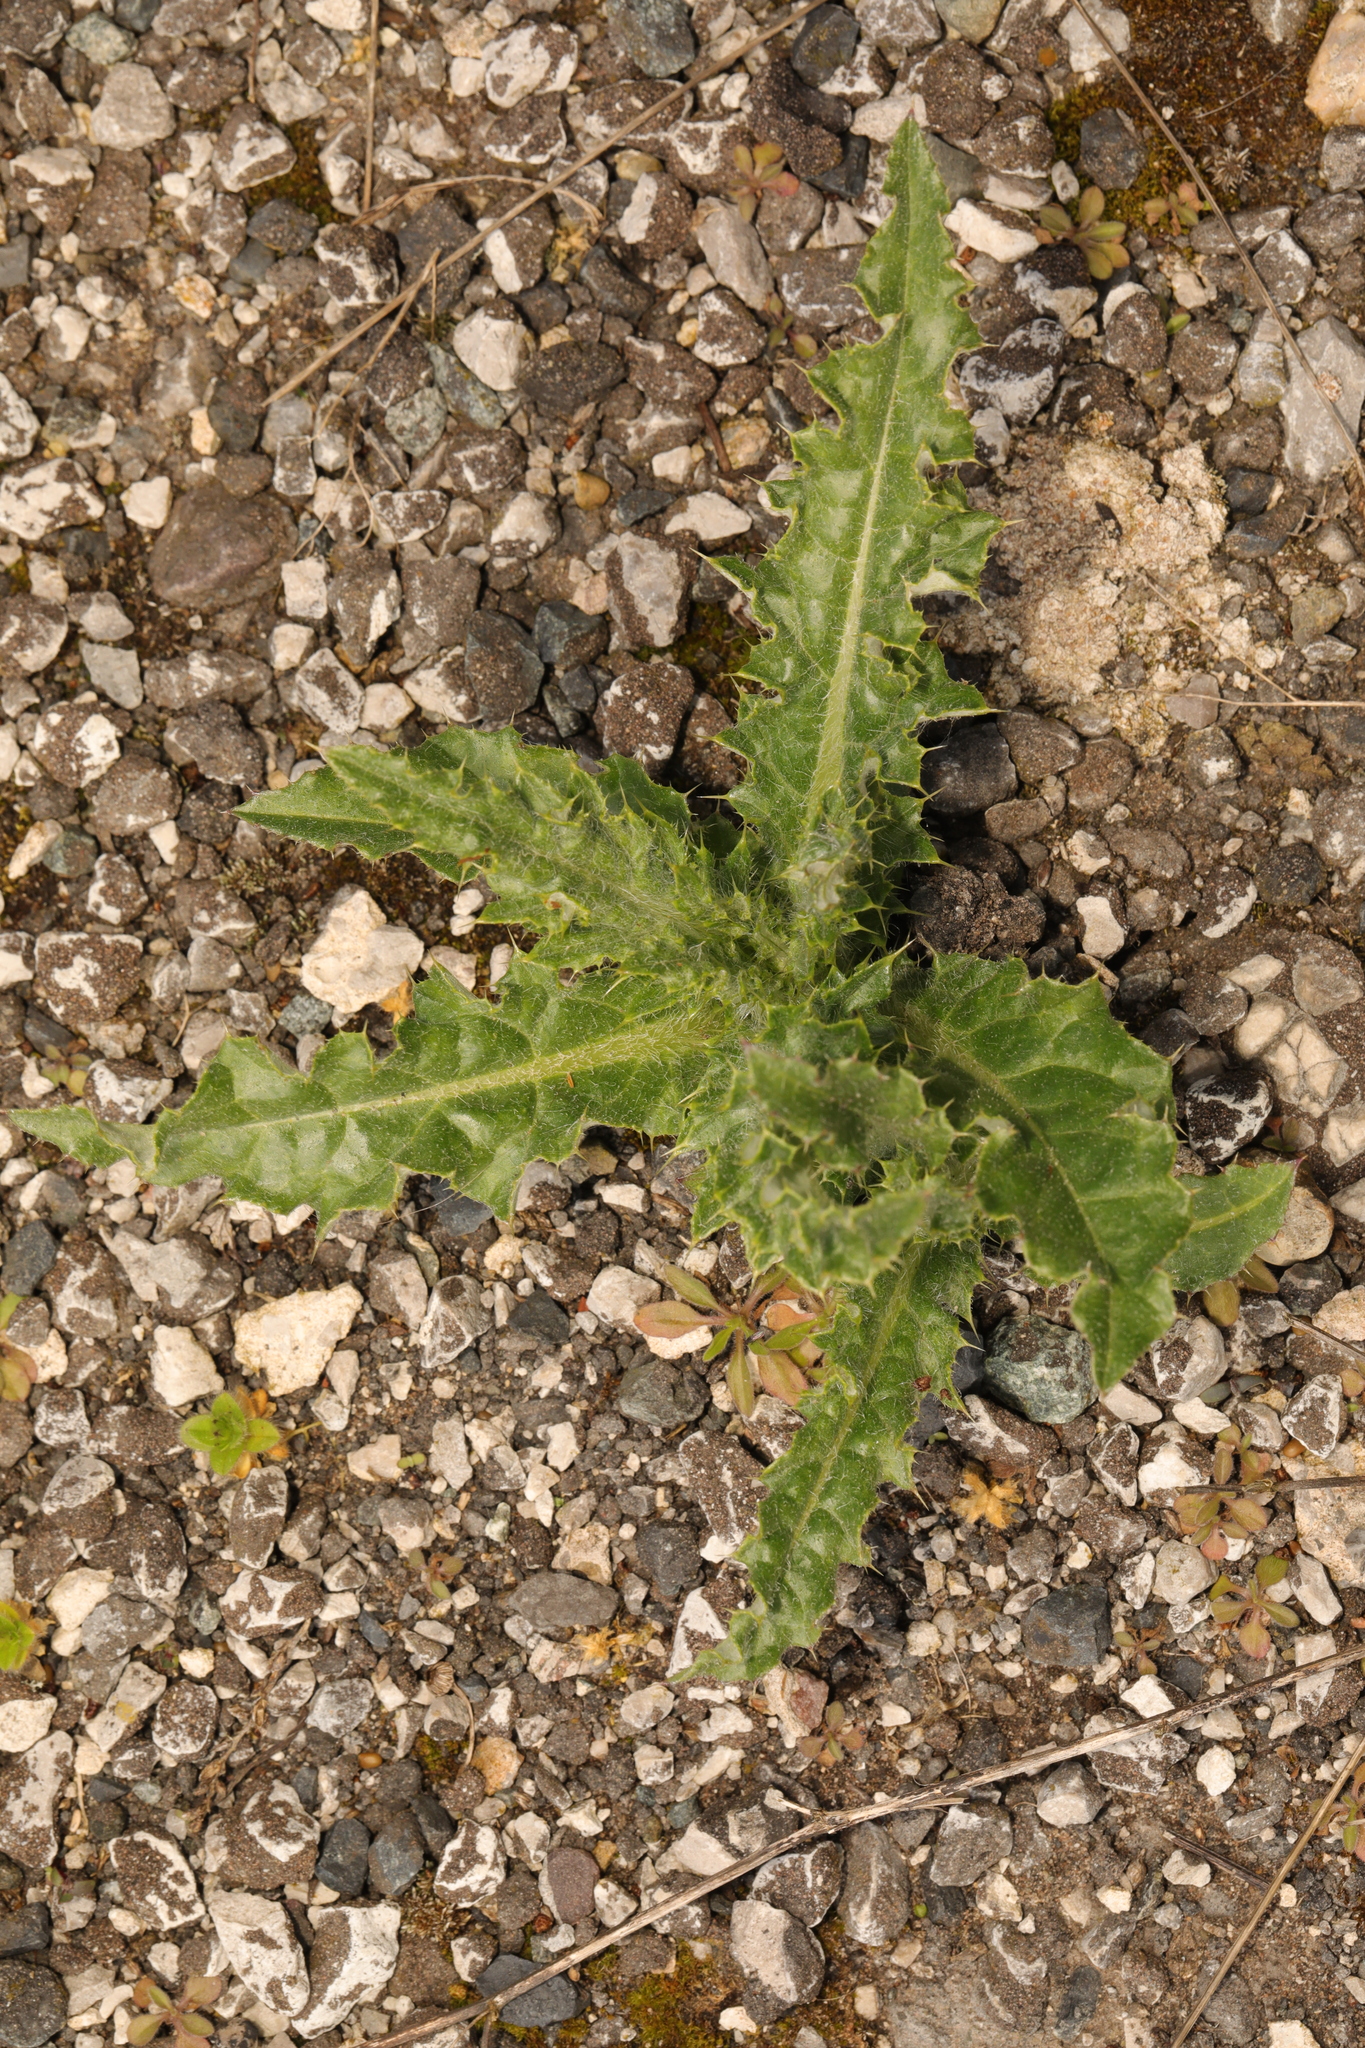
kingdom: Plantae
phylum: Tracheophyta
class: Magnoliopsida
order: Asterales
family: Asteraceae
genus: Cirsium
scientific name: Cirsium arvense
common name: Creeping thistle
